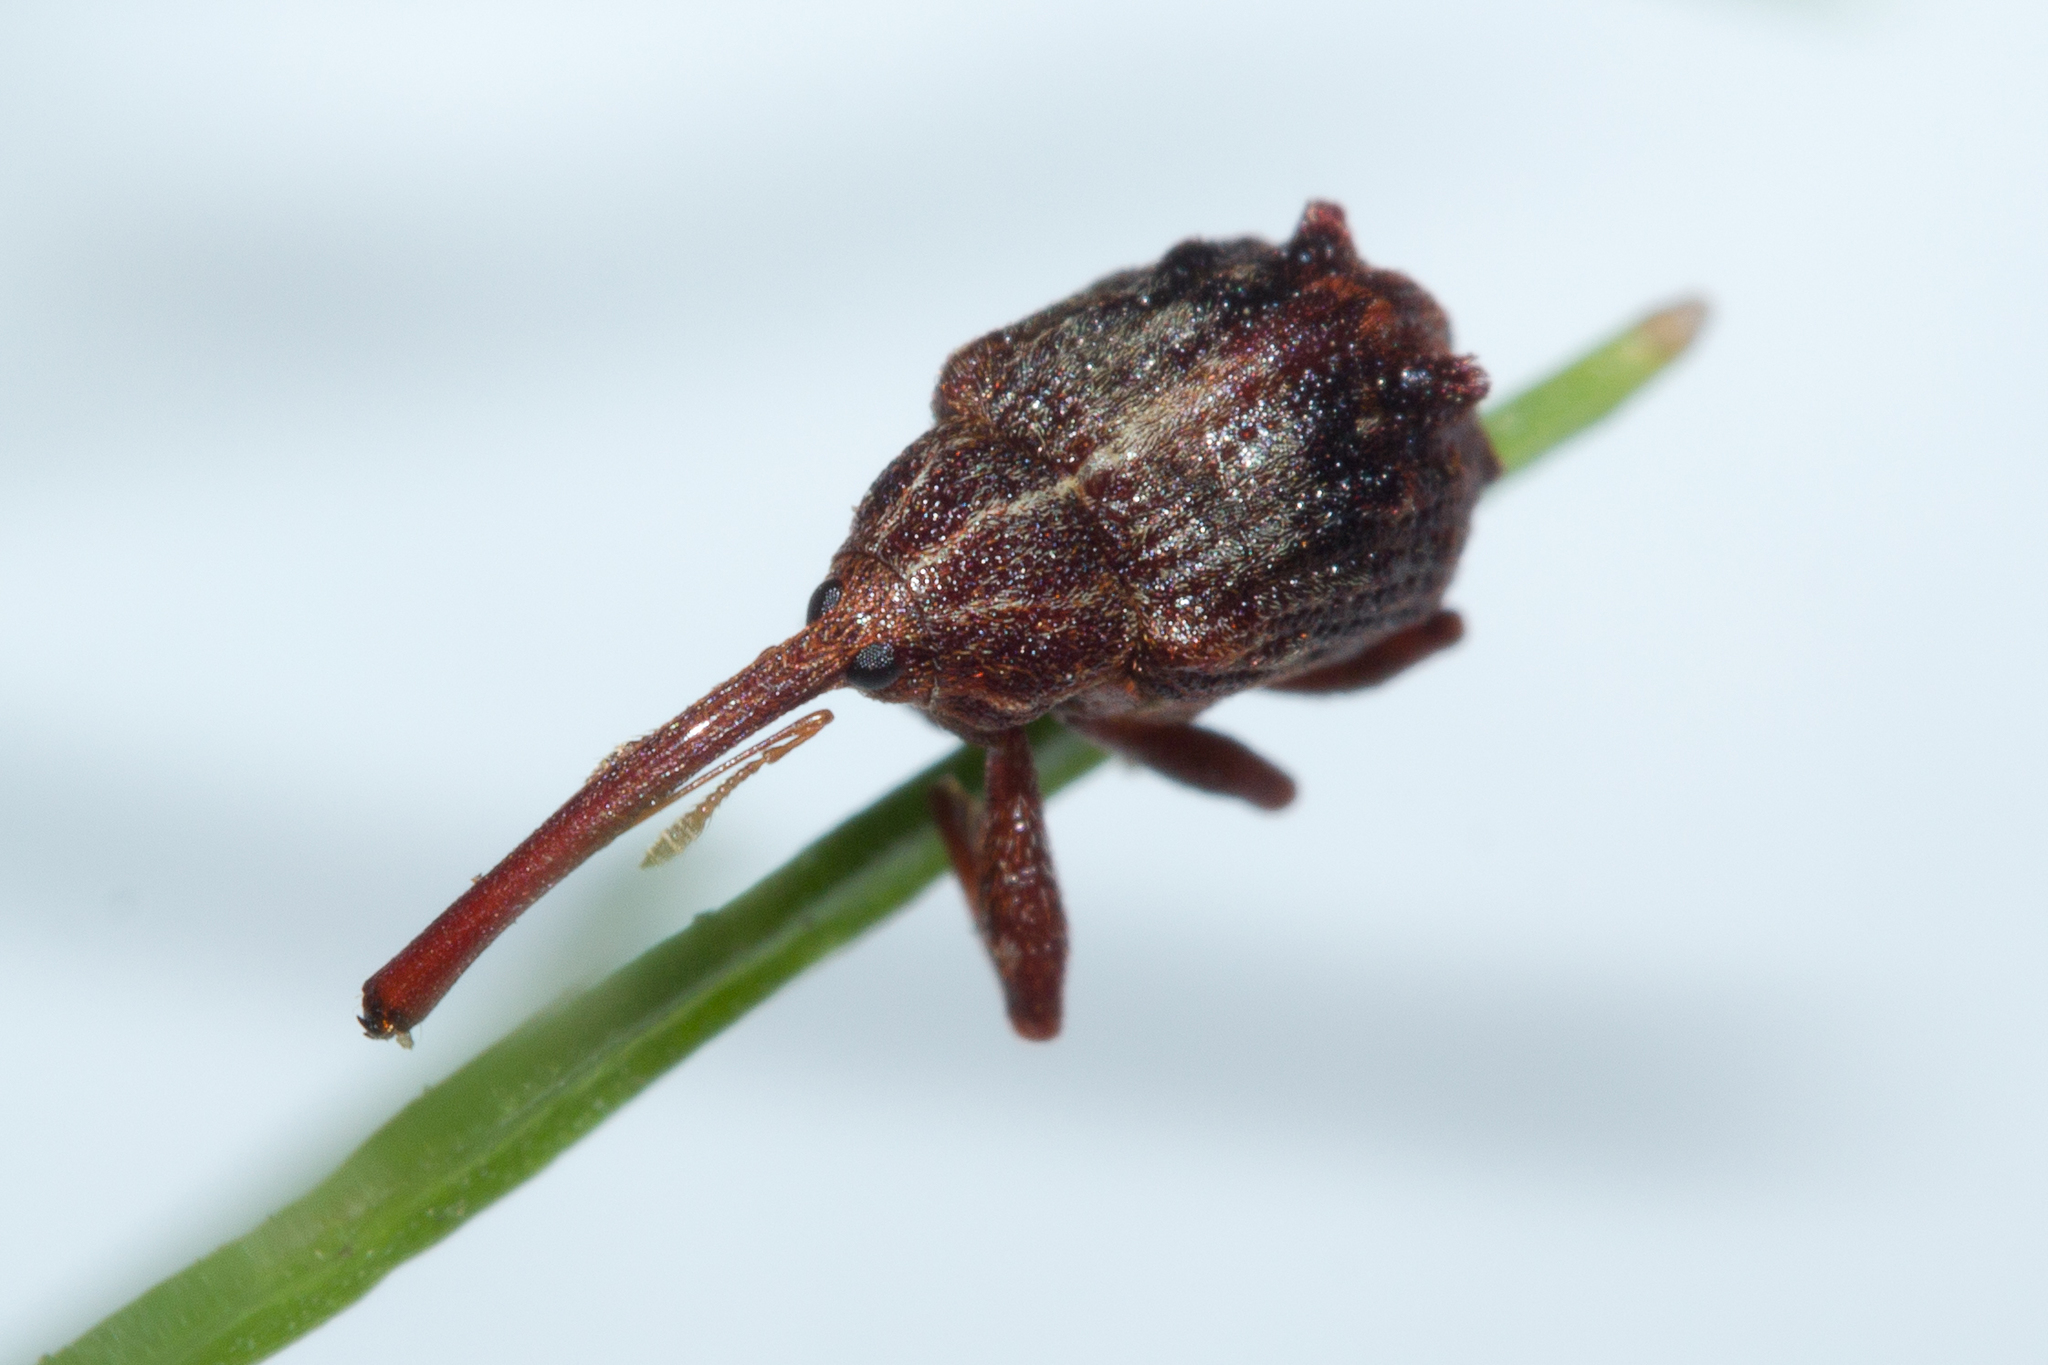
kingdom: Animalia
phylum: Arthropoda
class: Insecta
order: Coleoptera
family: Curculionidae
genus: Anthonomus
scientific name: Anthonomus quadrigibbus
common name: Apple curculio
